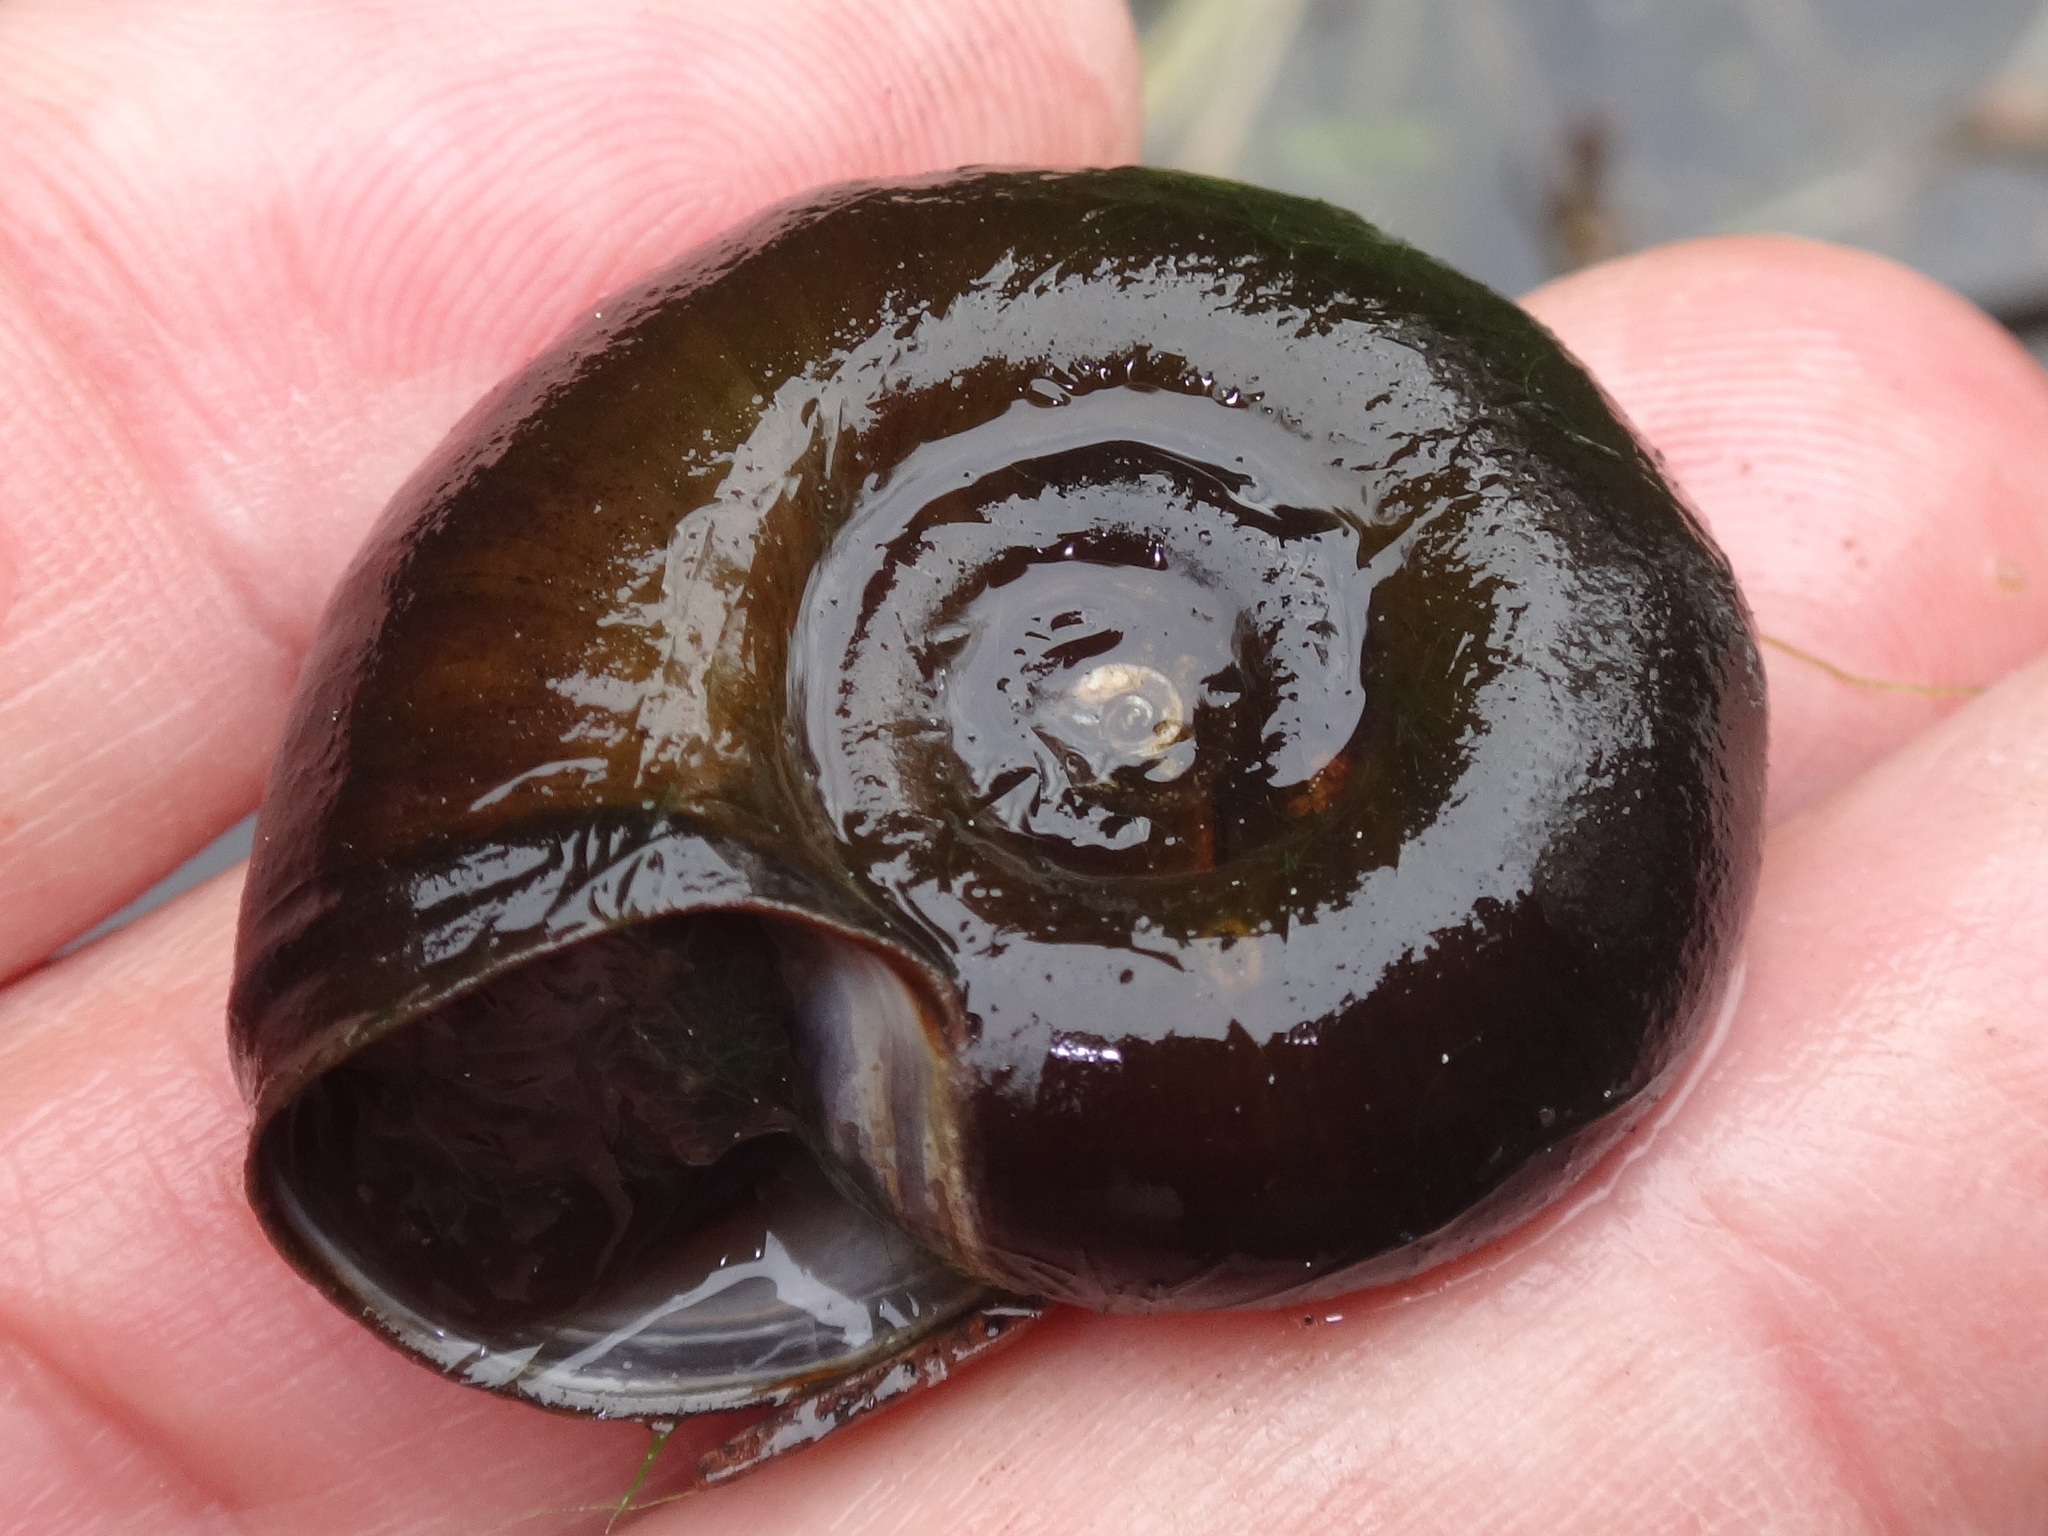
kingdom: Animalia
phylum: Mollusca
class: Gastropoda
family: Planorbidae
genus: Planorbarius
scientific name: Planorbarius corneus
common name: Great ramshorn
